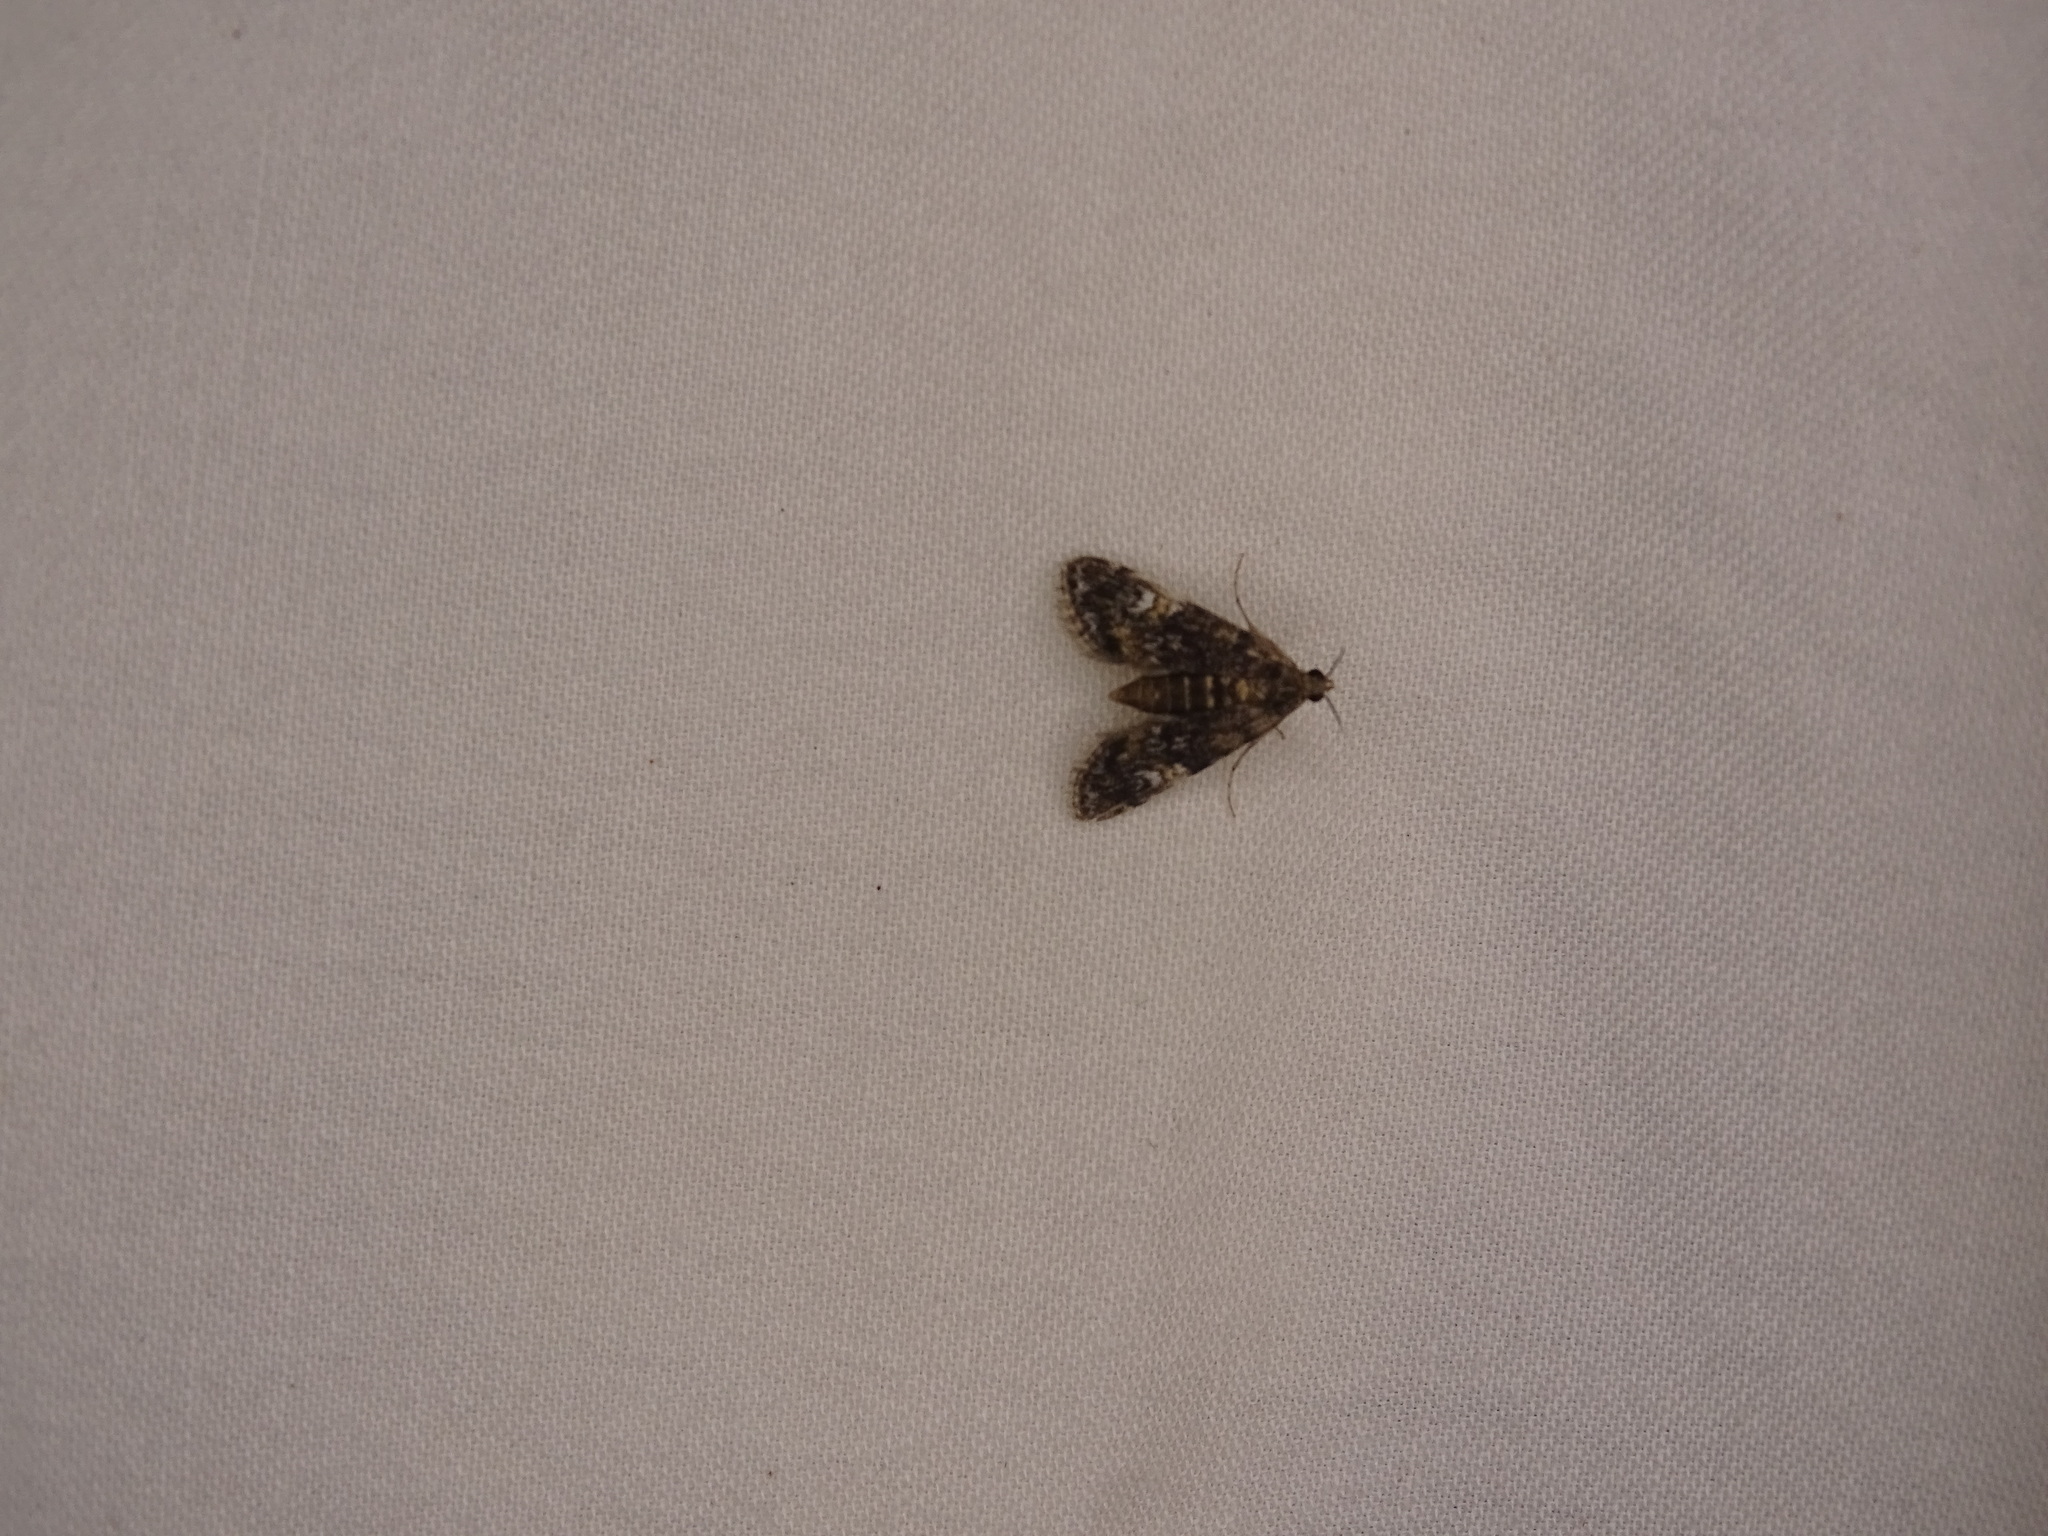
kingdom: Animalia
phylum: Arthropoda
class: Insecta
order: Lepidoptera
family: Crambidae
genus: Elophila
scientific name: Elophila obliteralis
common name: Waterlily leafcutter moth
